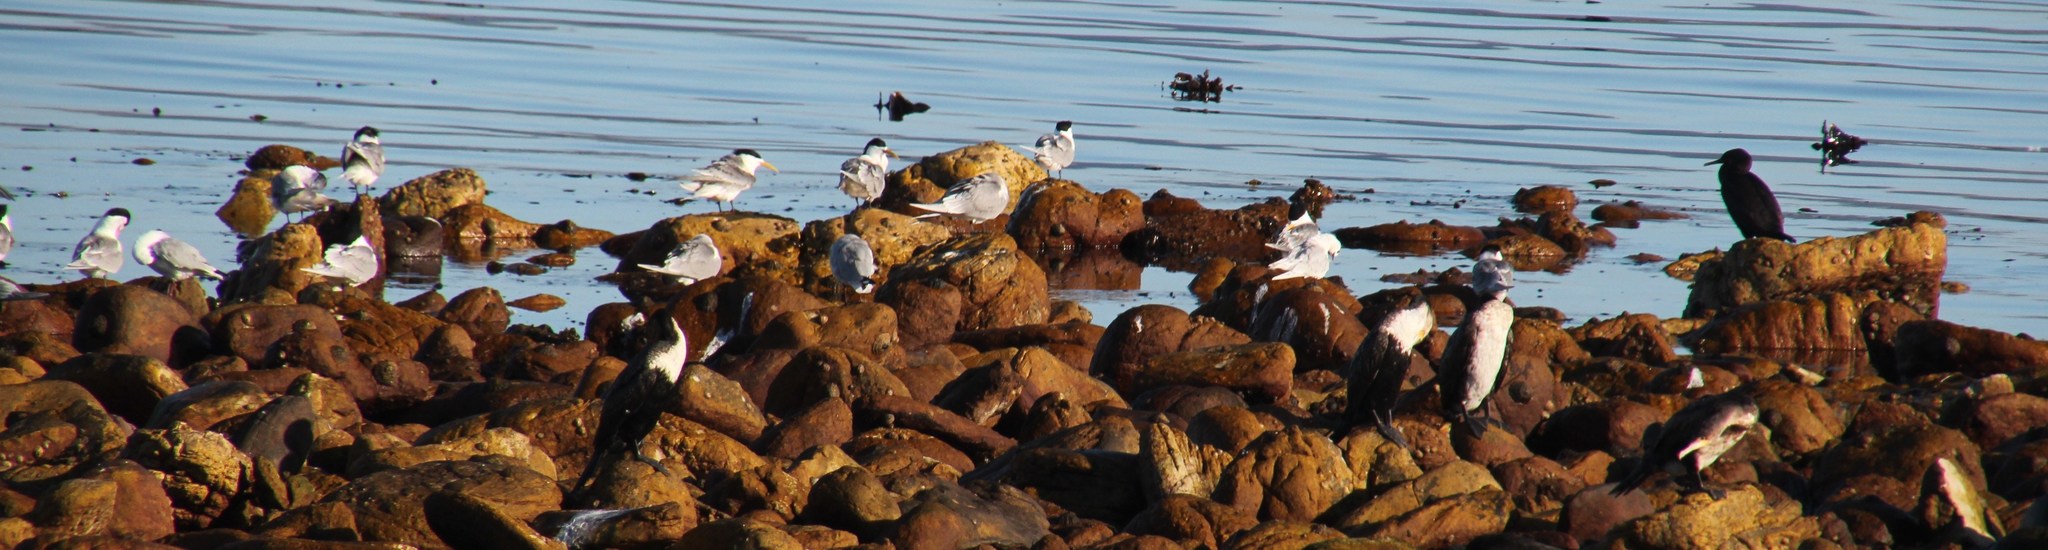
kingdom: Animalia
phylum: Chordata
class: Aves
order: Suliformes
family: Phalacrocoracidae
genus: Phalacrocorax
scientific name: Phalacrocorax carbo
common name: Great cormorant
